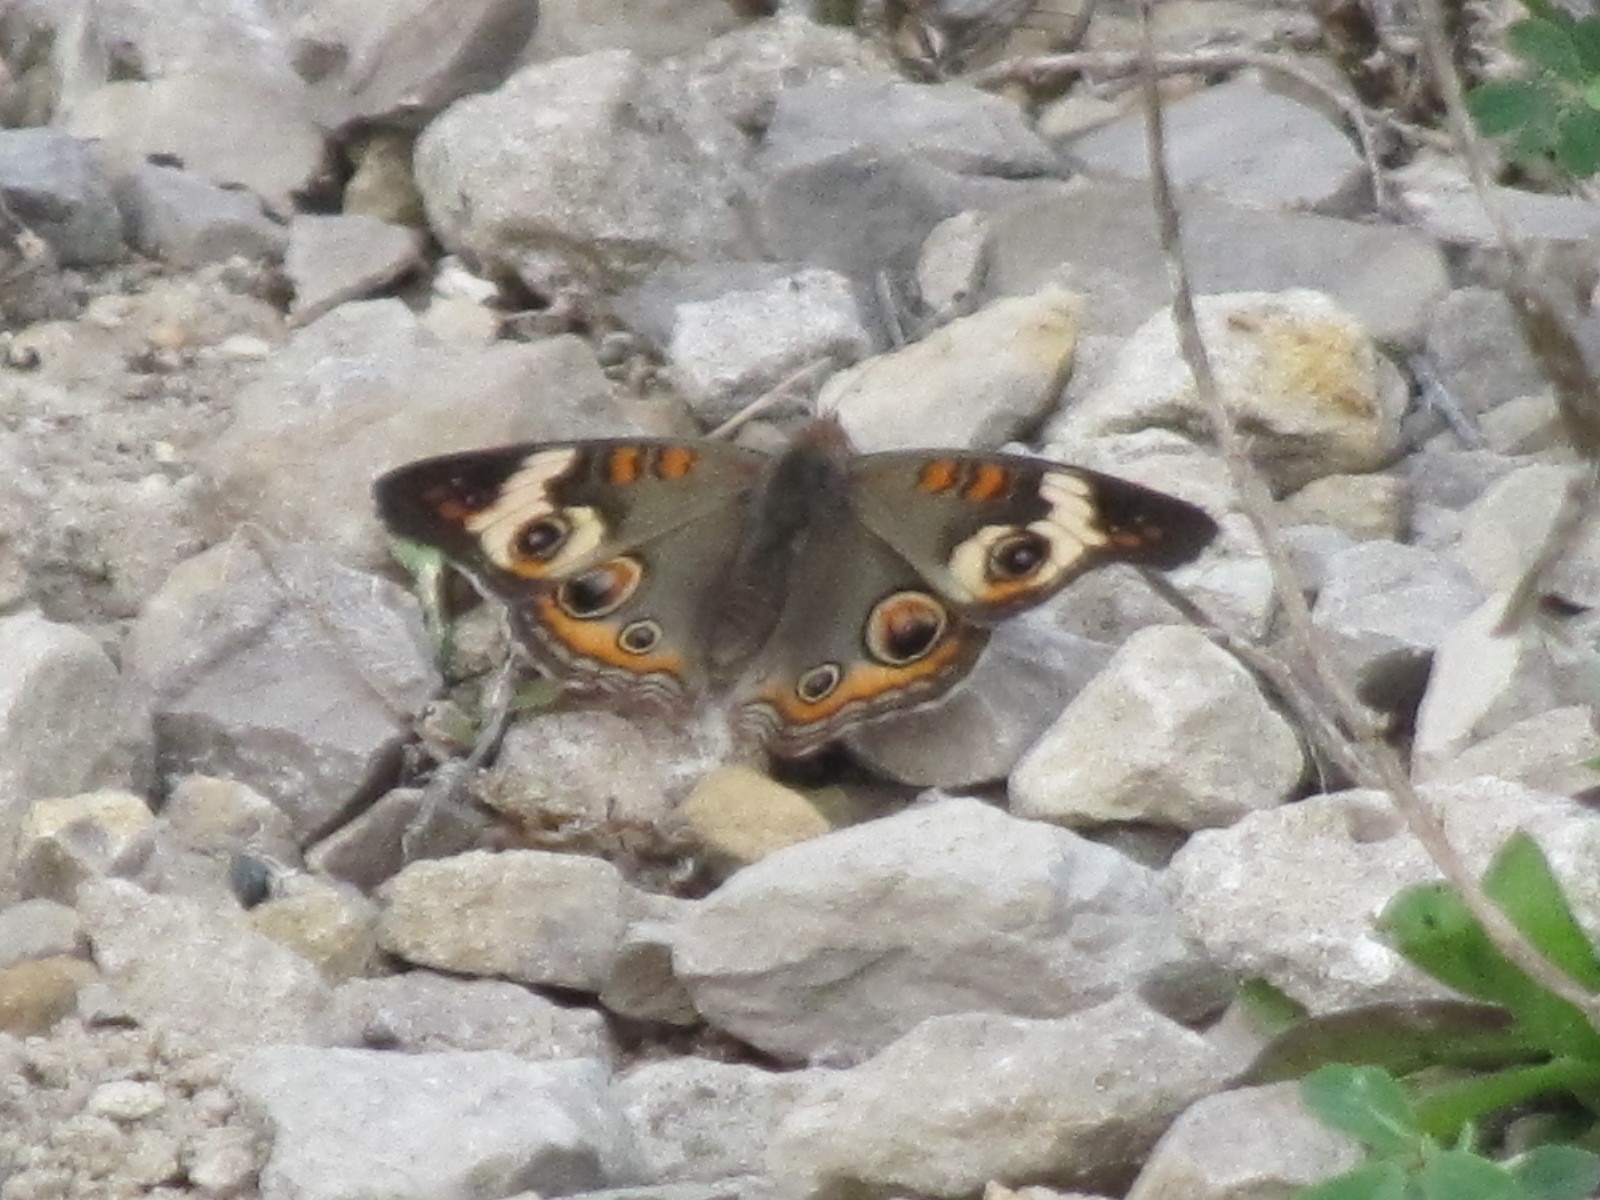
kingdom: Animalia
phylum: Arthropoda
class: Insecta
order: Lepidoptera
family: Nymphalidae
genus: Junonia
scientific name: Junonia coenia
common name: Common buckeye
